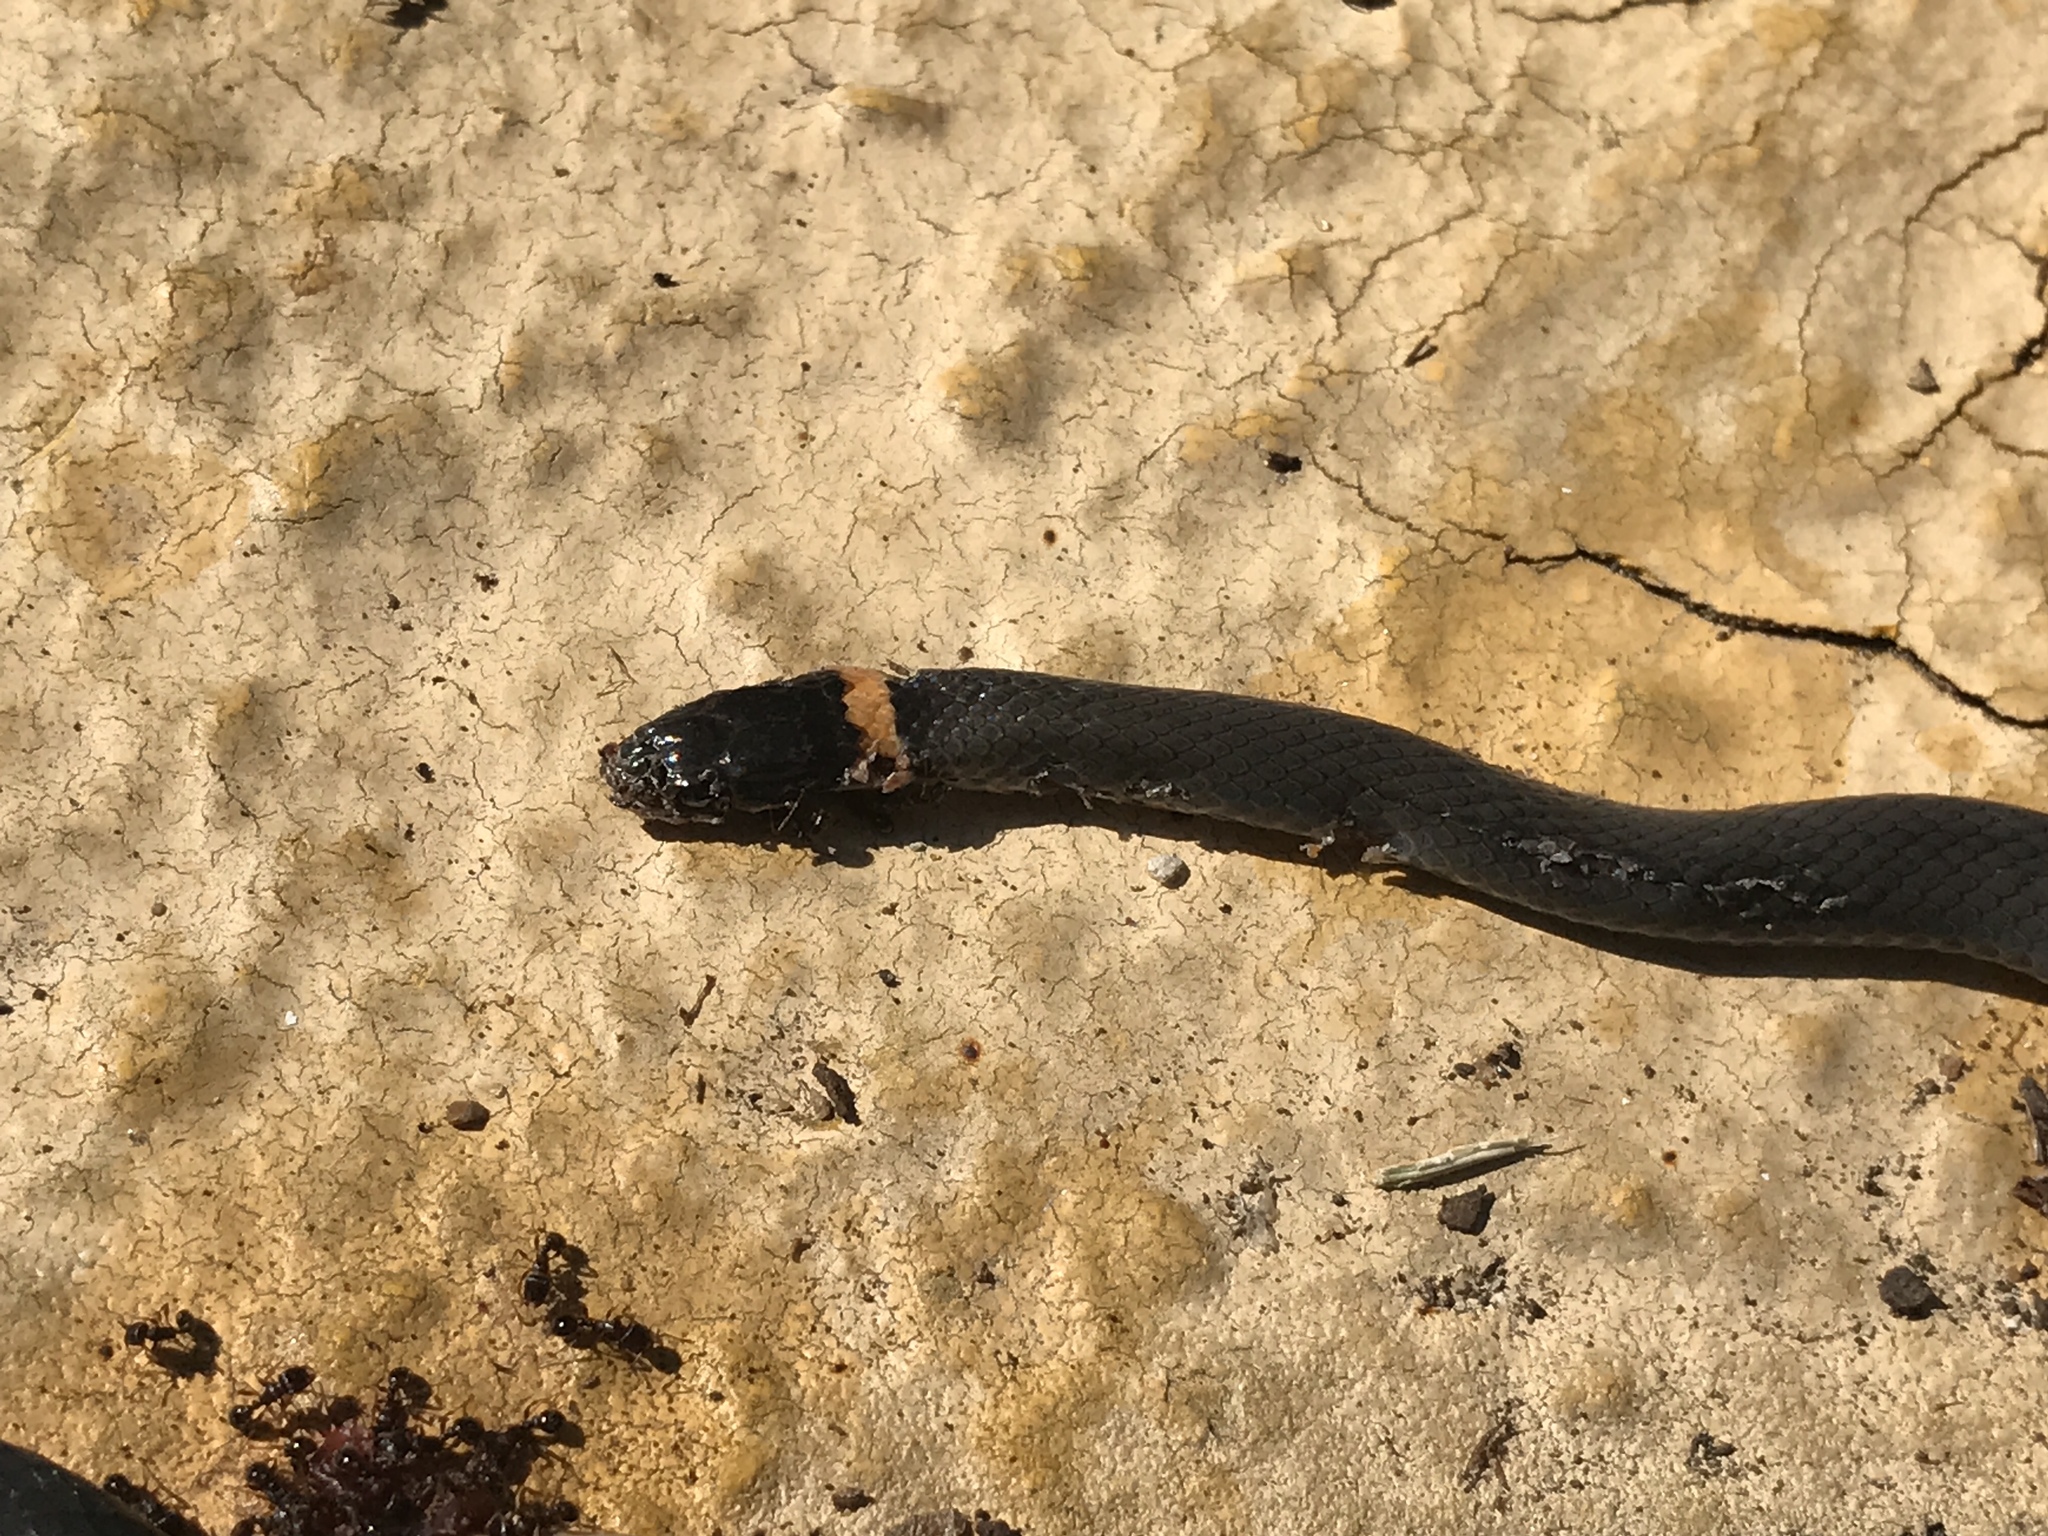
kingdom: Animalia
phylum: Chordata
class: Squamata
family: Colubridae
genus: Diadophis
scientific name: Diadophis punctatus
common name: Ringneck snake
